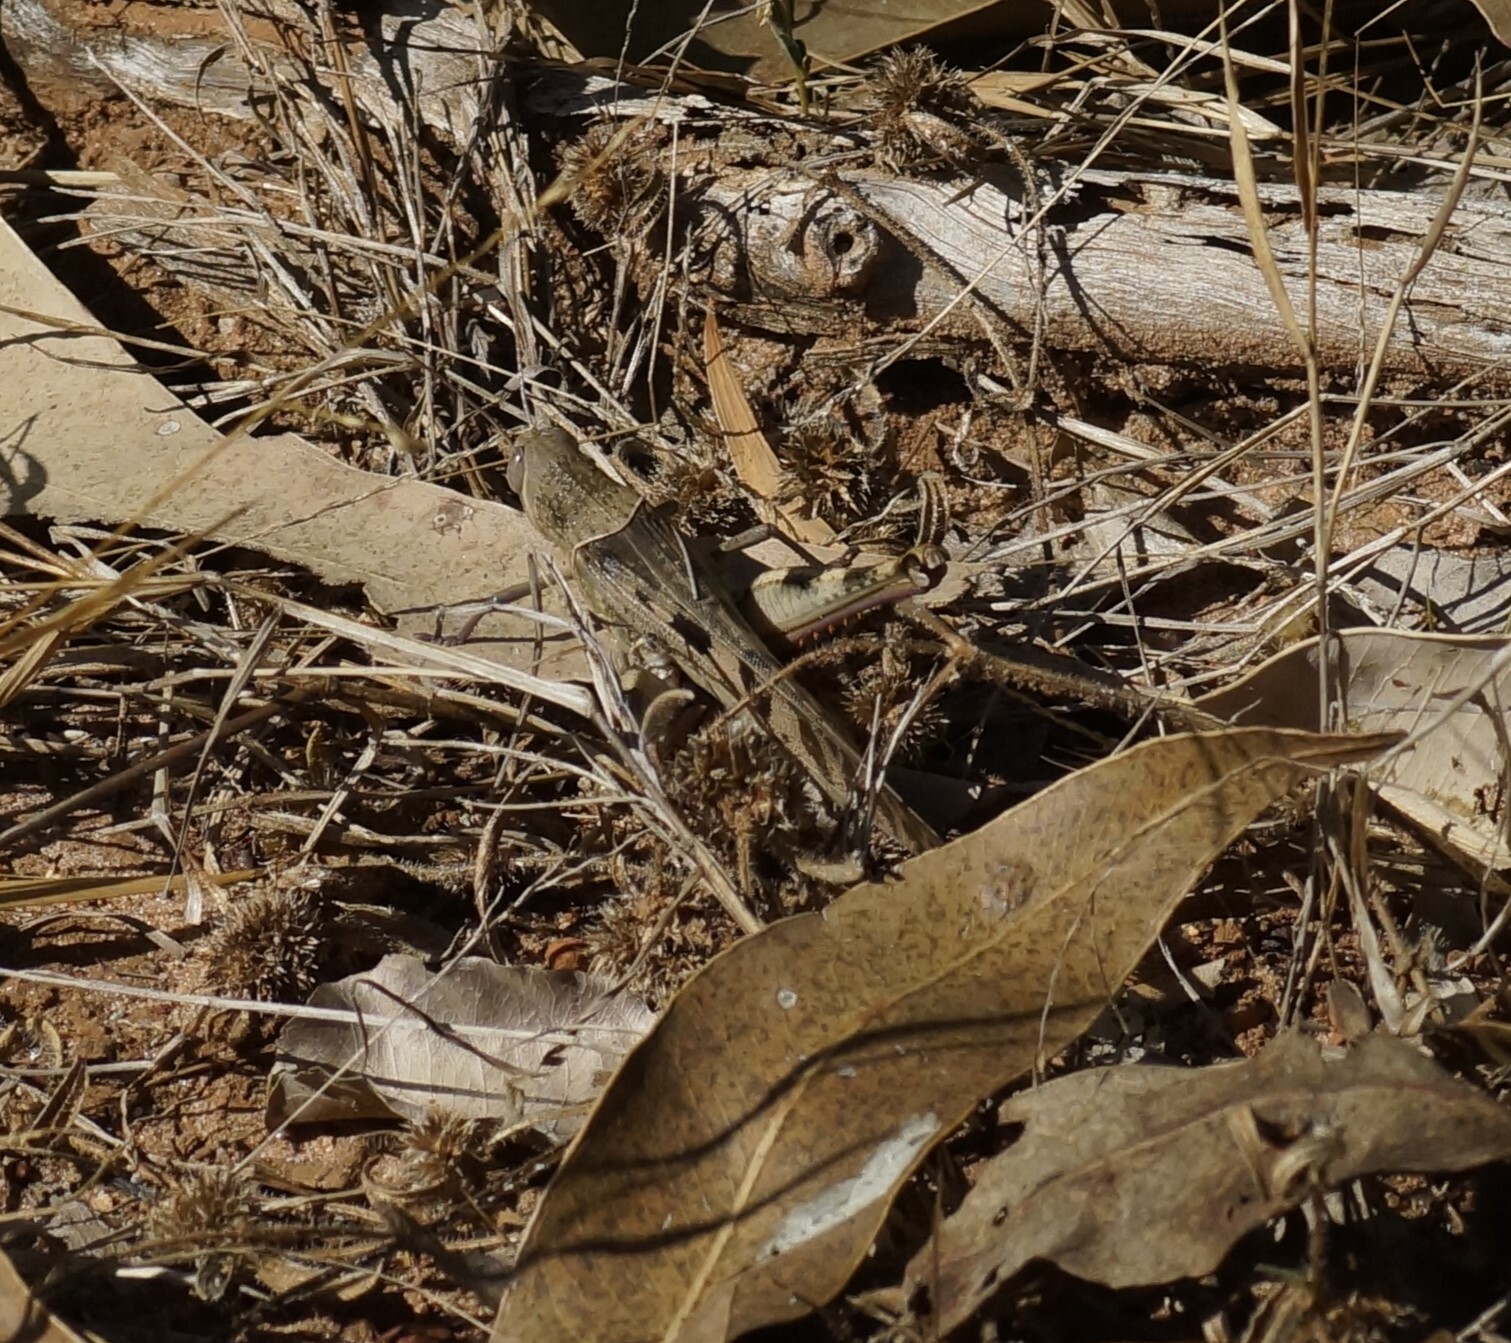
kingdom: Animalia
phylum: Arthropoda
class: Insecta
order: Orthoptera
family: Acrididae
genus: Austracris
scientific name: Austracris basalis
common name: Spotted spur-throated locust
